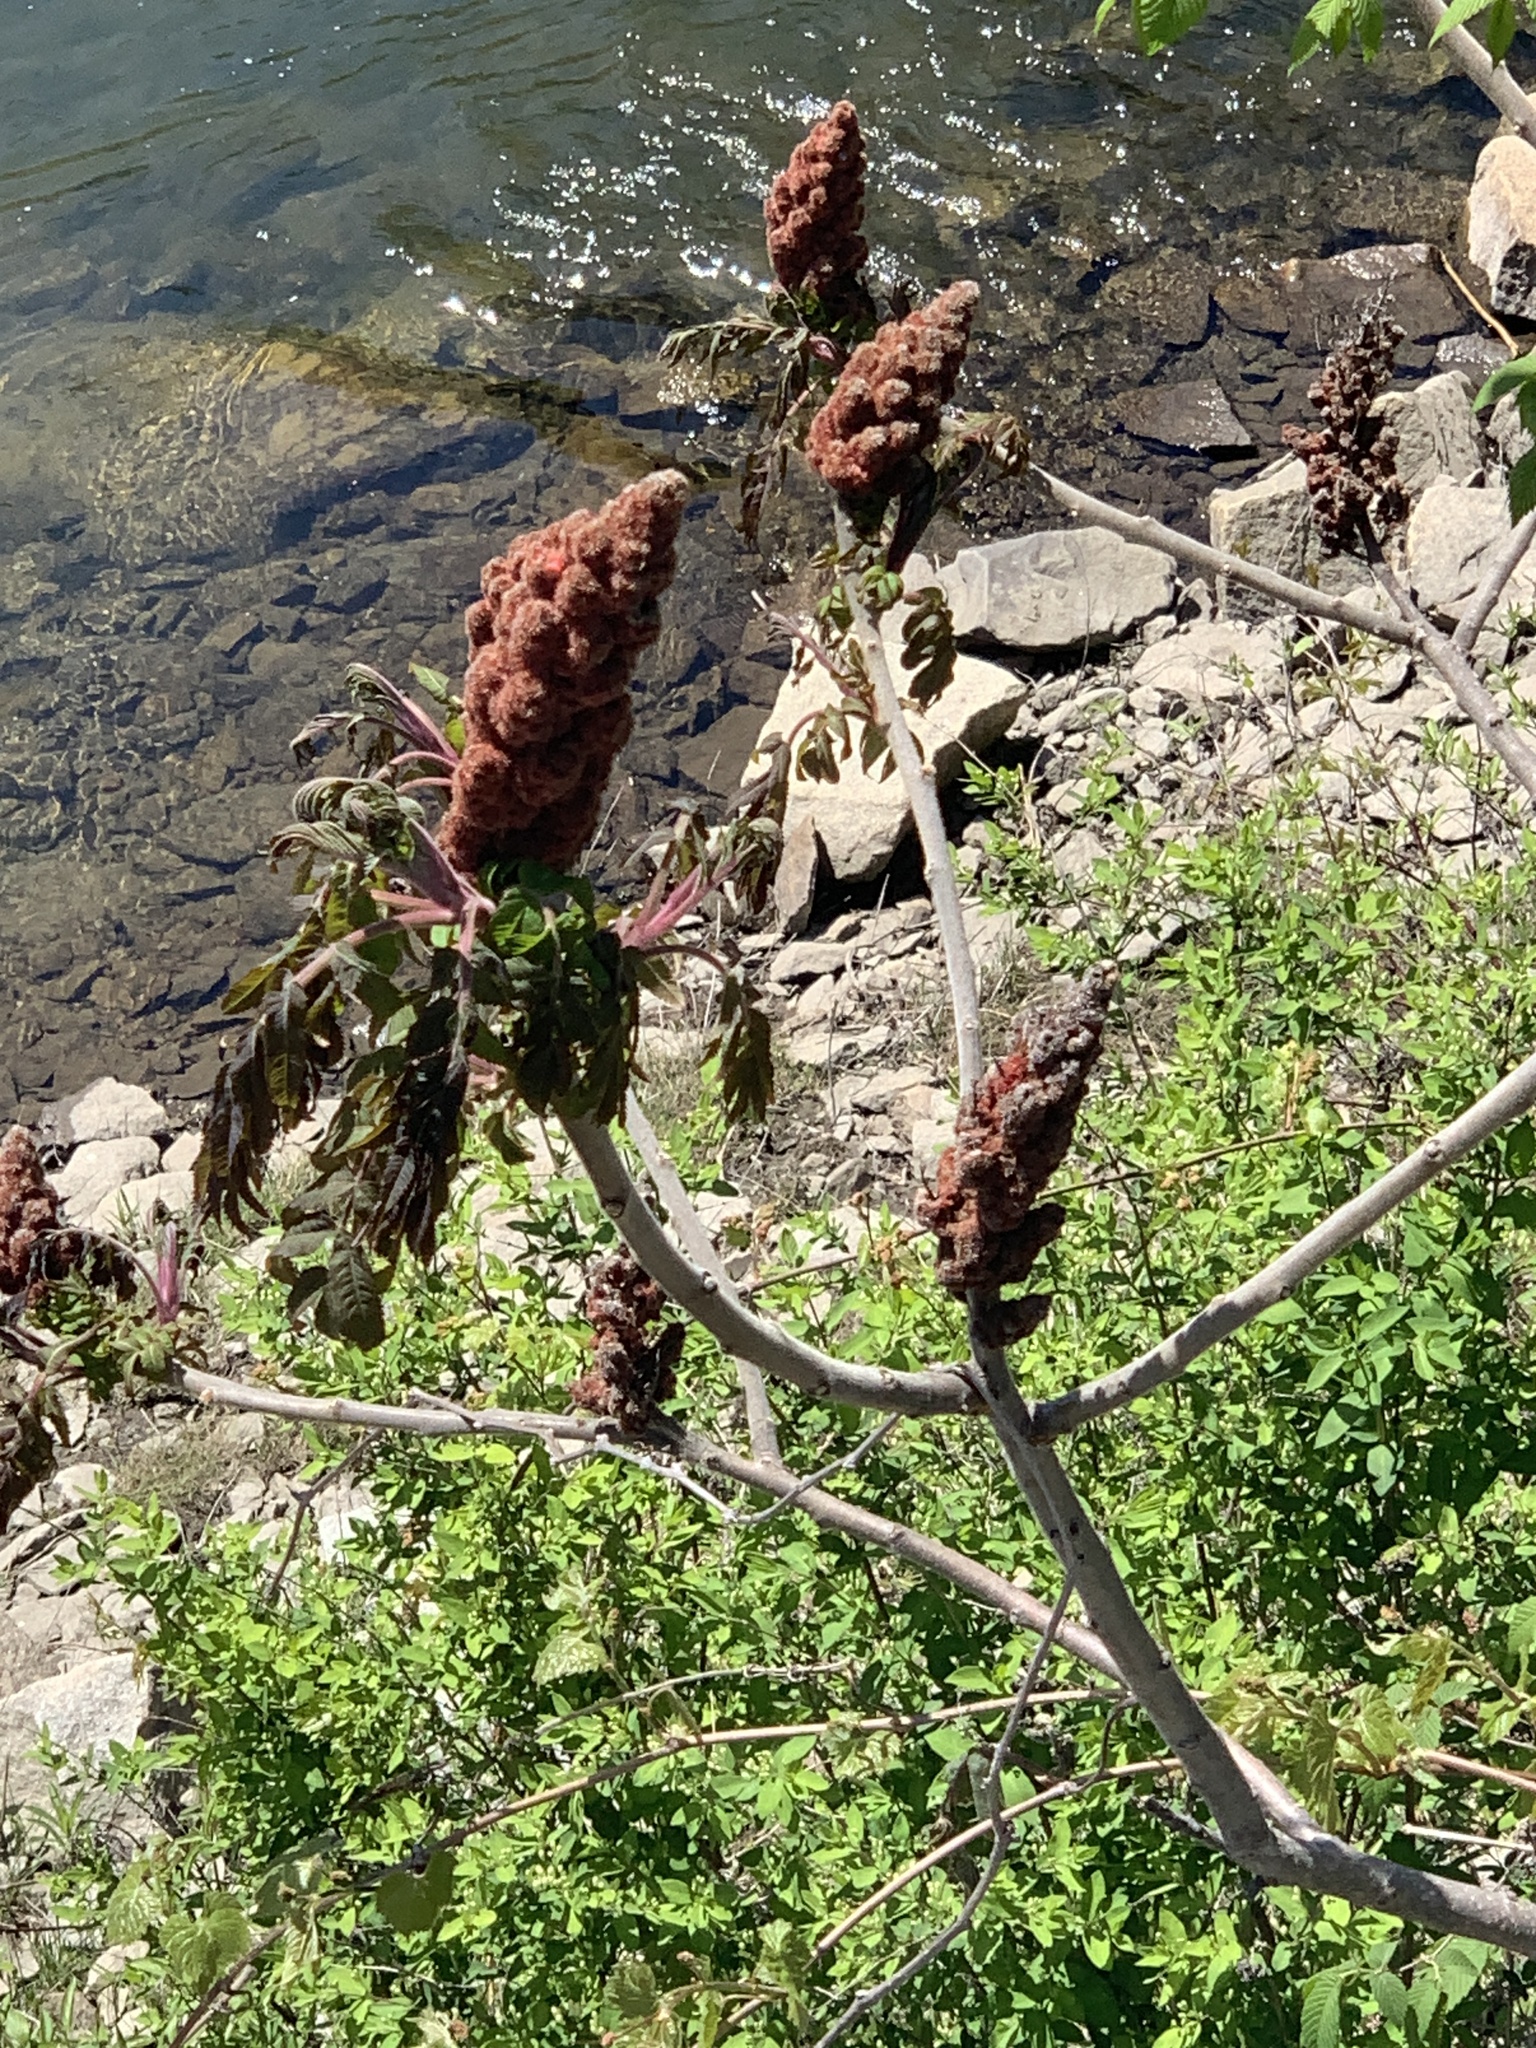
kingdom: Plantae
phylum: Tracheophyta
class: Magnoliopsida
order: Sapindales
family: Anacardiaceae
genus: Rhus
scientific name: Rhus typhina
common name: Staghorn sumac
